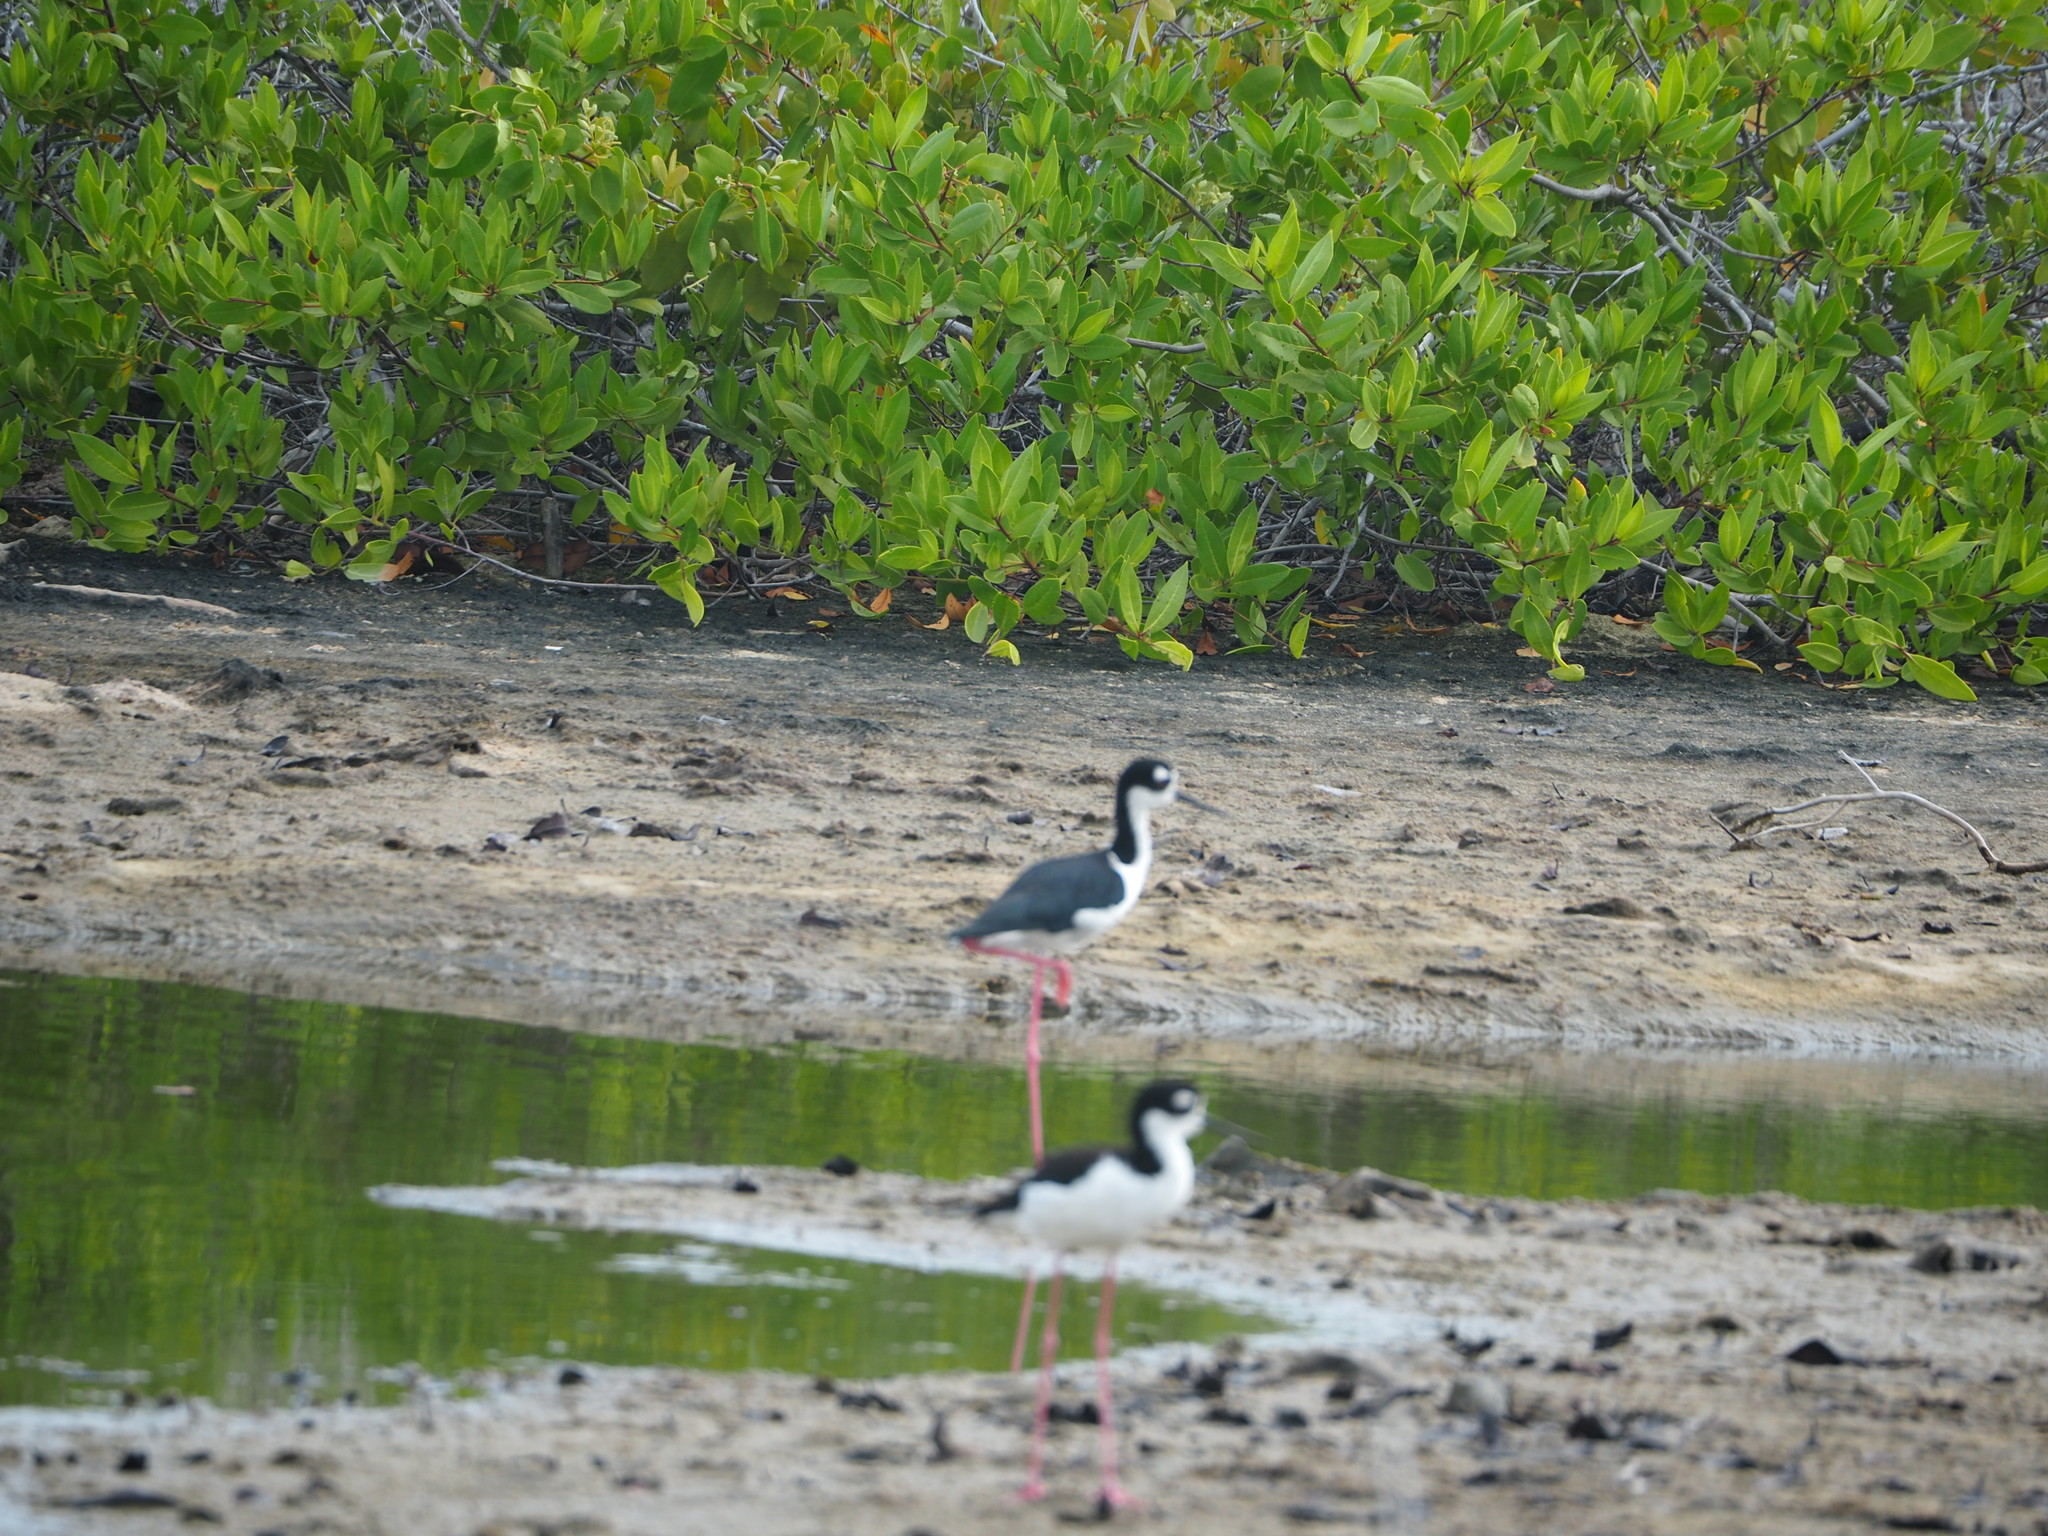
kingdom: Animalia
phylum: Chordata
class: Aves
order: Charadriiformes
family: Recurvirostridae
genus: Himantopus
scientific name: Himantopus mexicanus
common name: Black-necked stilt
